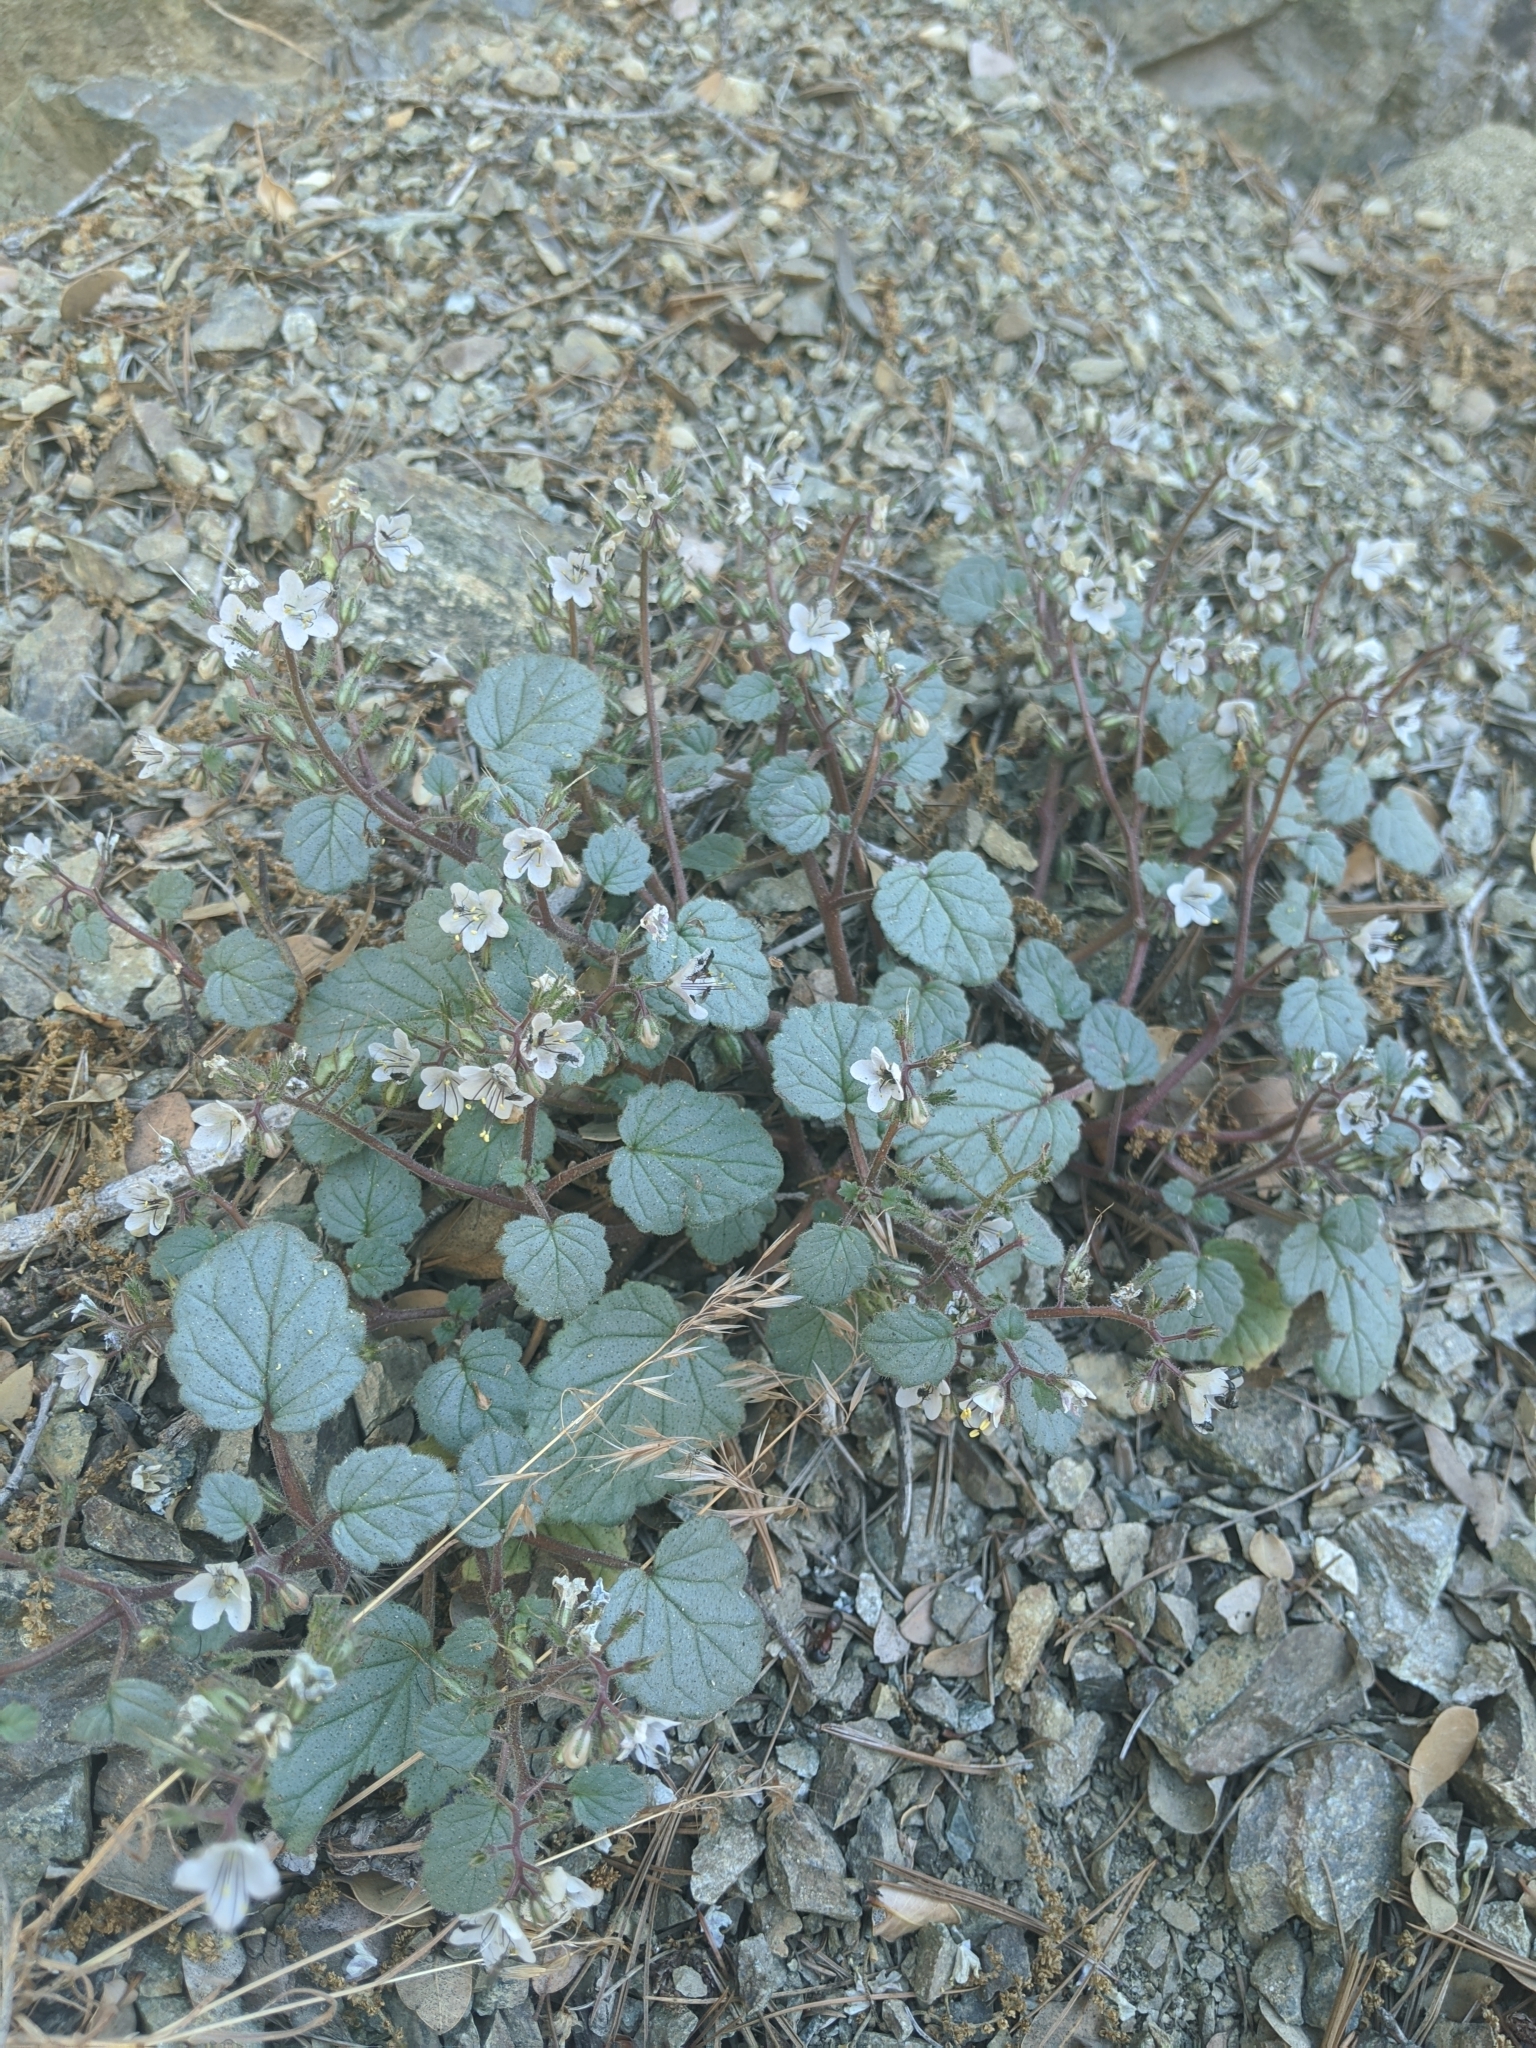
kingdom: Plantae
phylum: Tracheophyta
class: Magnoliopsida
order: Boraginales
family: Hydrophyllaceae
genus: Phacelia
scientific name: Phacelia longipes
